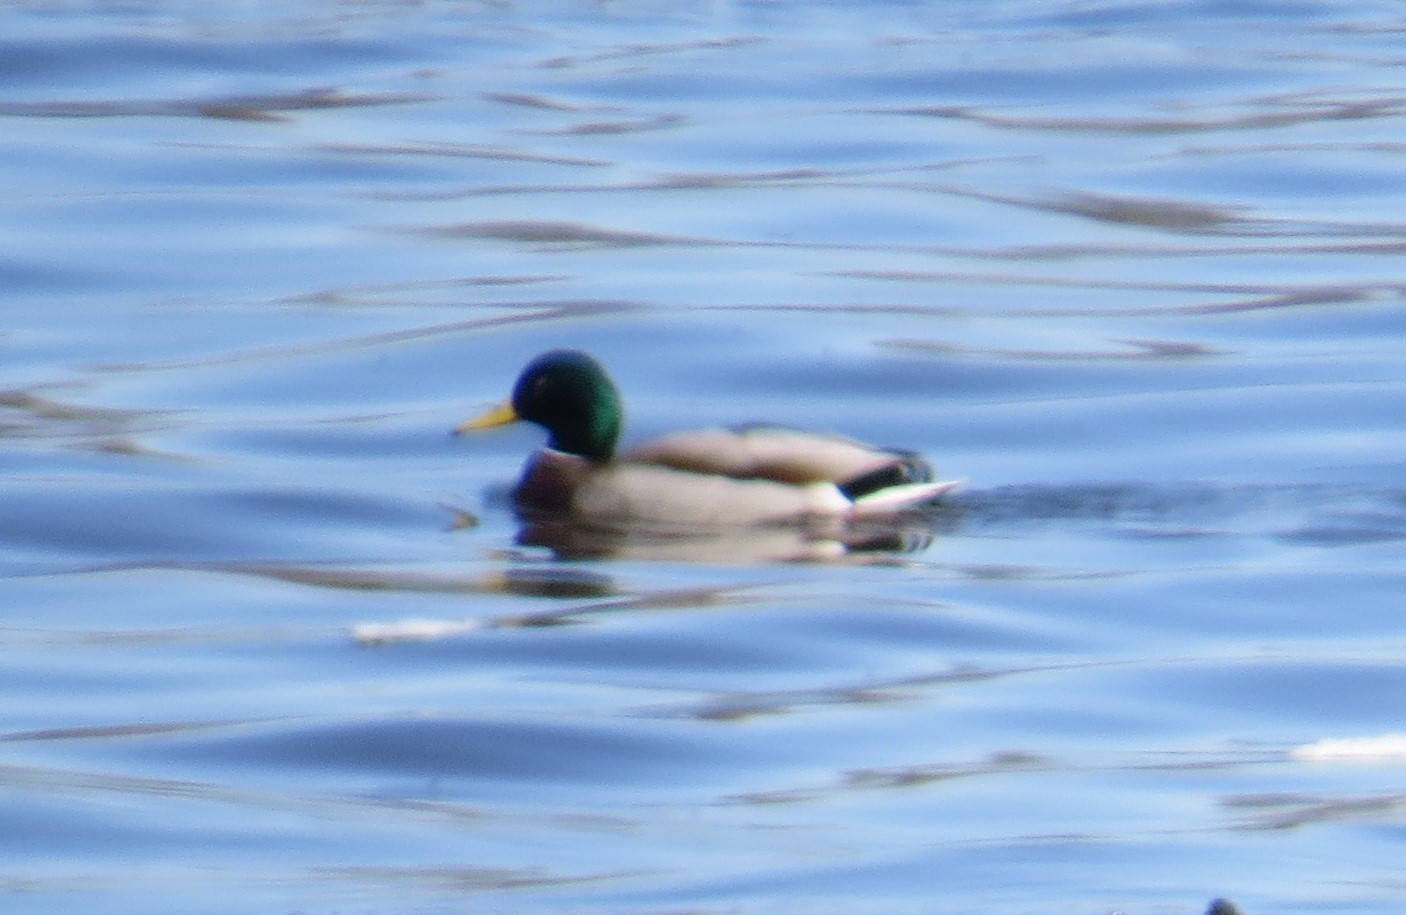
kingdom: Animalia
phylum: Chordata
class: Aves
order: Anseriformes
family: Anatidae
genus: Anas
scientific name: Anas platyrhynchos
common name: Mallard
